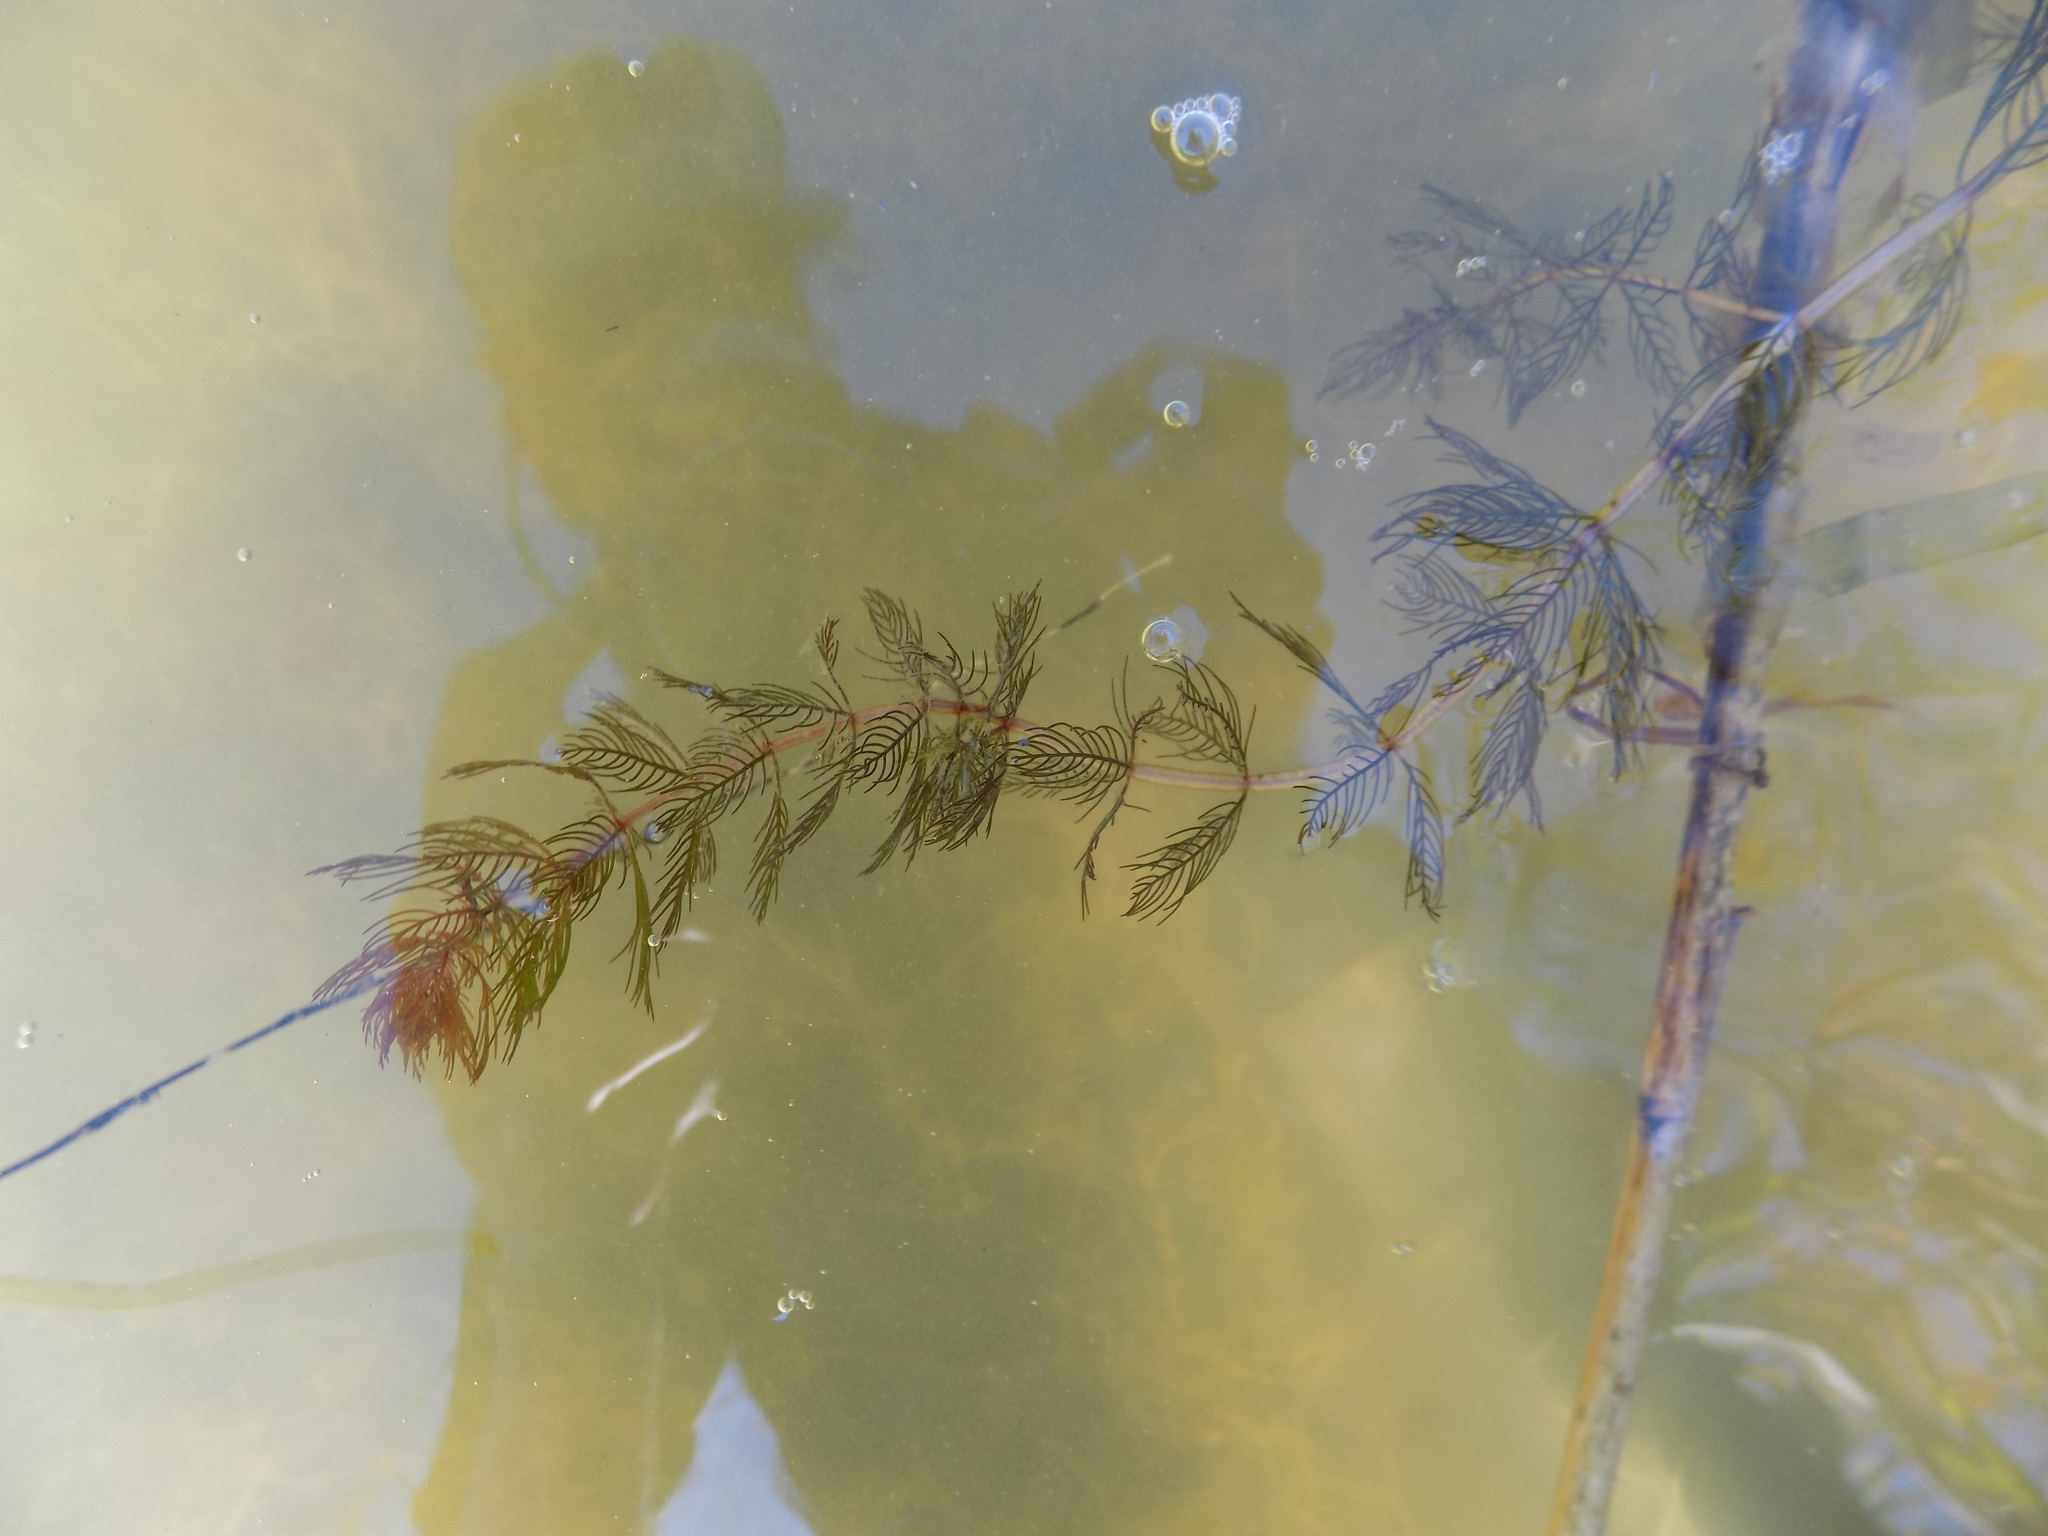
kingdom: Plantae
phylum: Tracheophyta
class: Magnoliopsida
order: Saxifragales
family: Haloragaceae
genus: Myriophyllum
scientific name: Myriophyllum sibiricum
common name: Siberian water-milfoil
